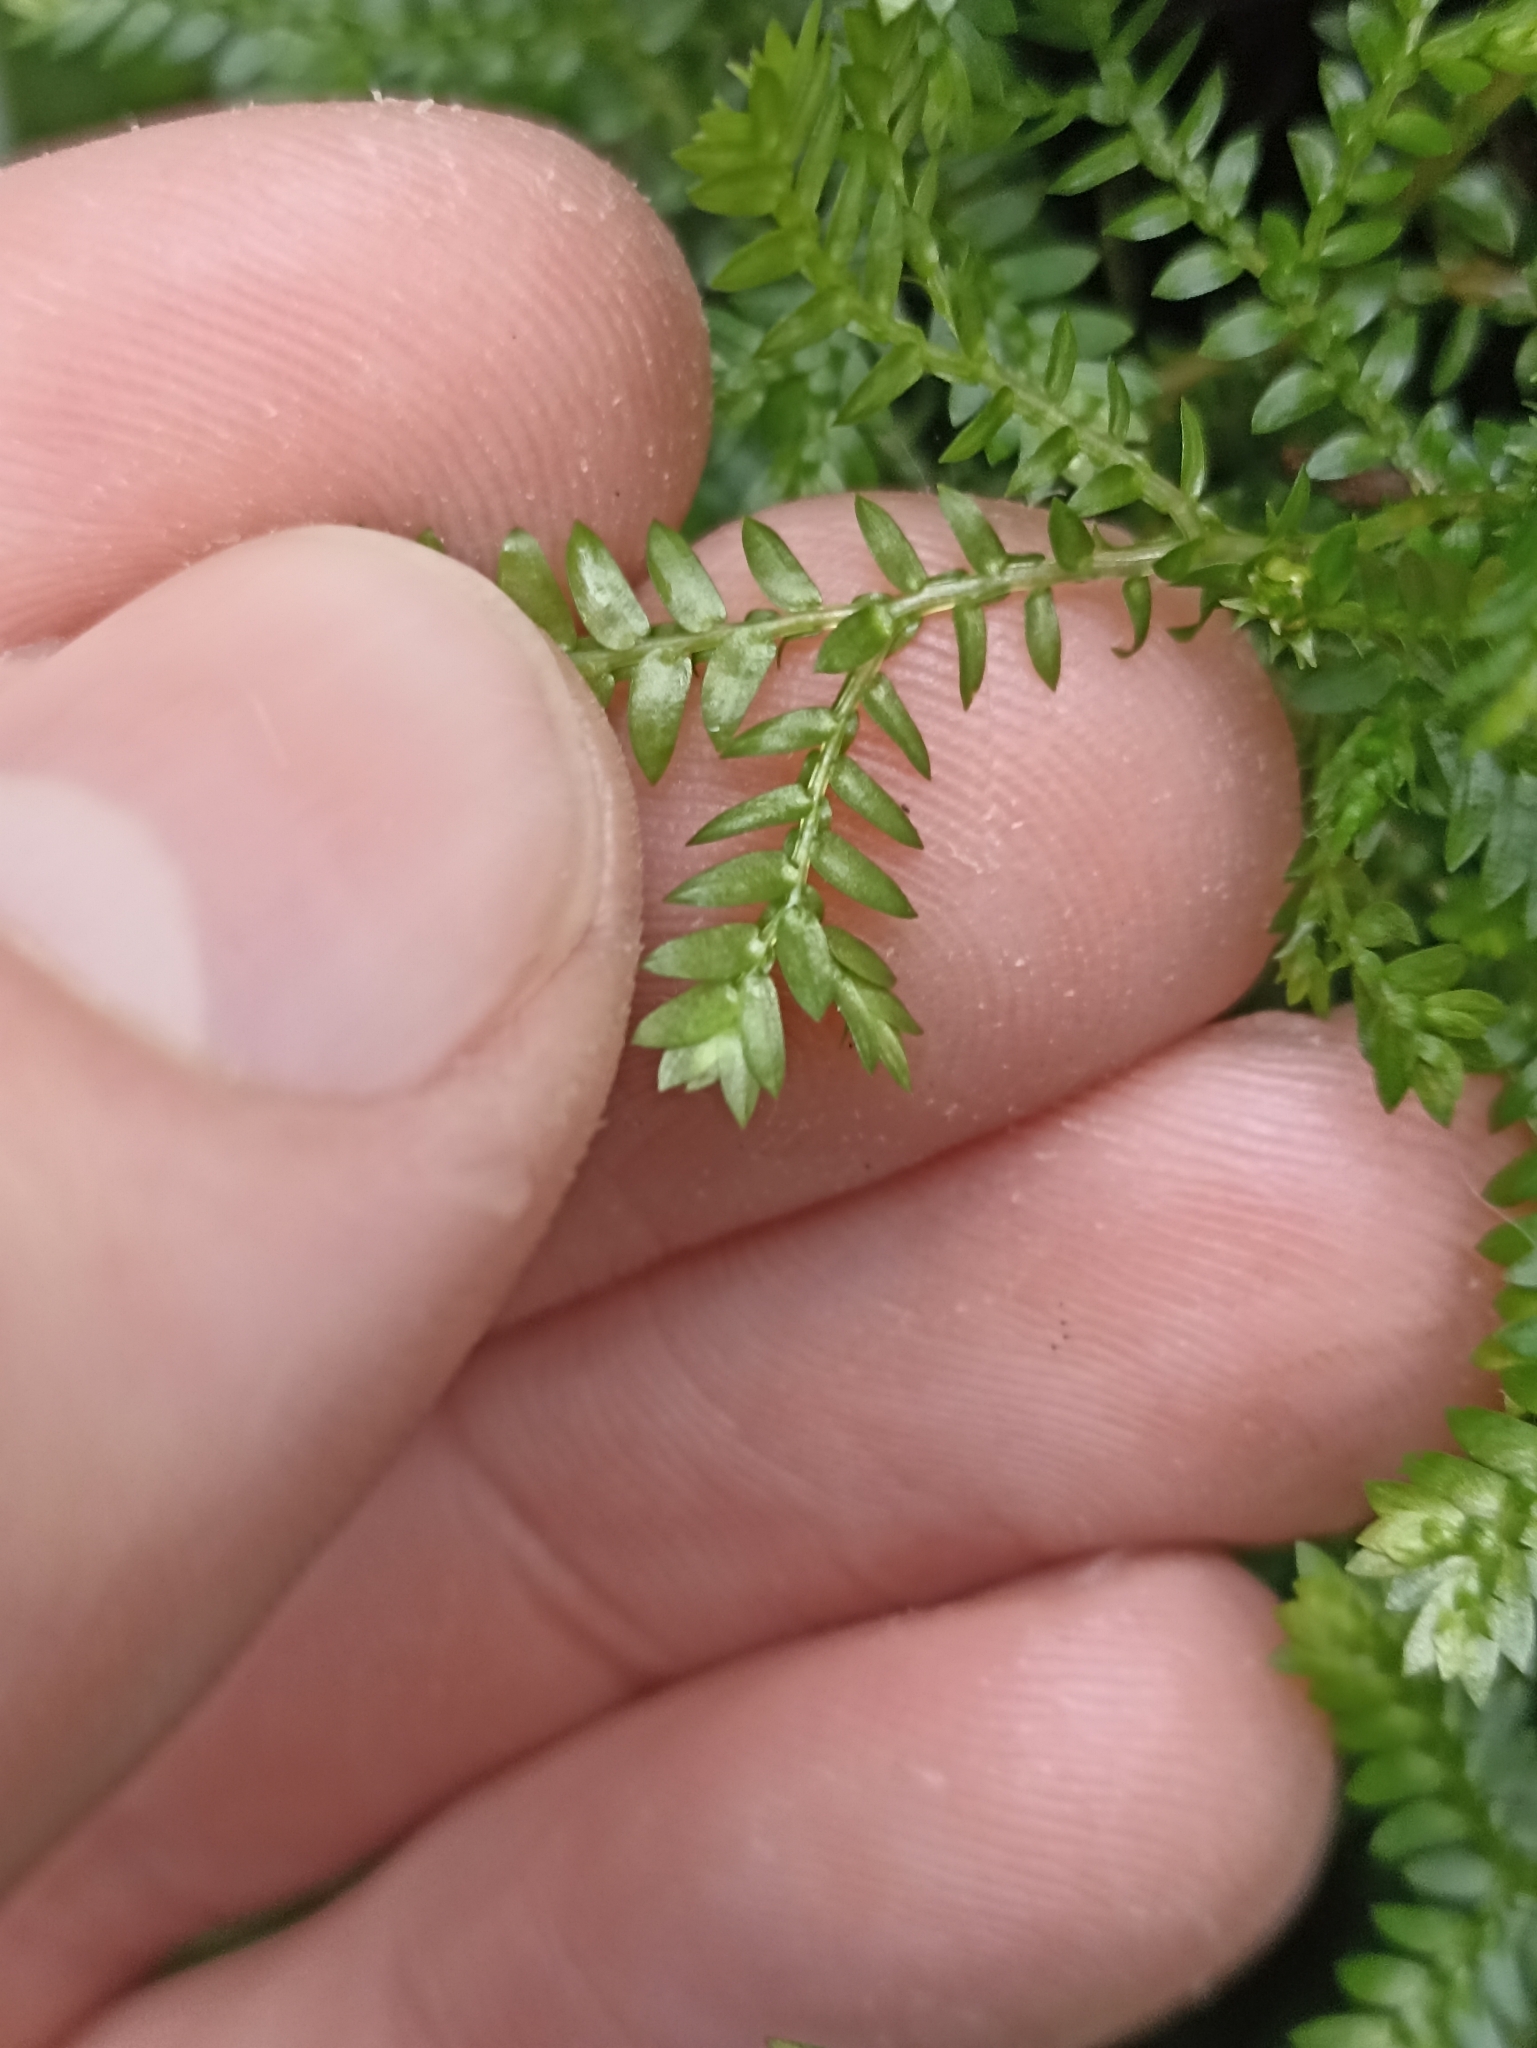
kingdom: Plantae
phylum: Tracheophyta
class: Lycopodiopsida
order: Selaginellales
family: Selaginellaceae
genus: Selaginella
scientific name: Selaginella kraussiana
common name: Krauss' spikemoss
